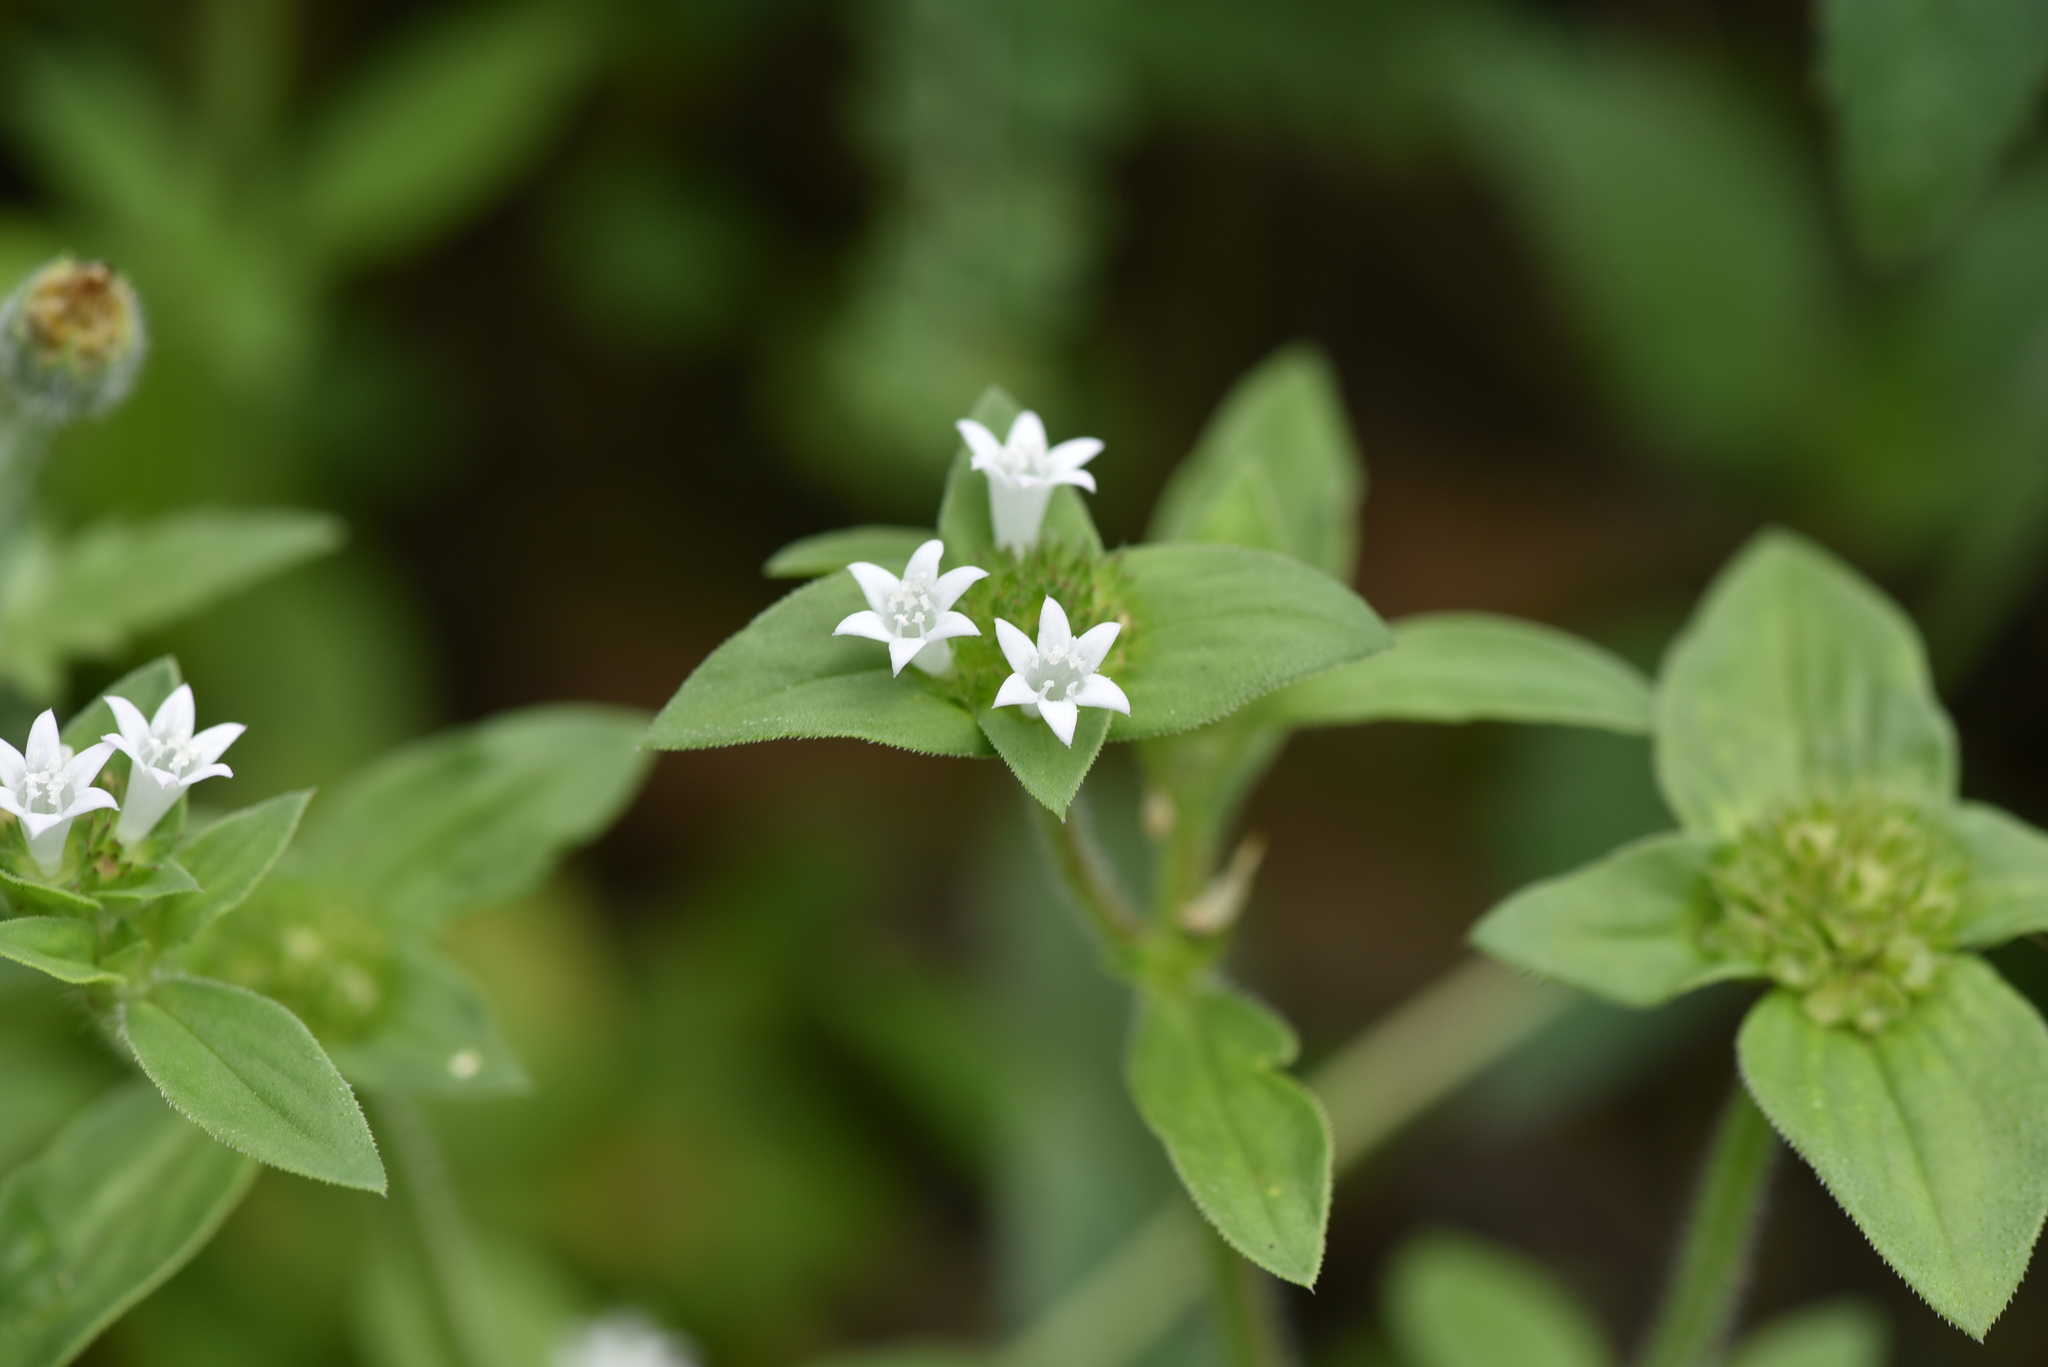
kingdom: Plantae
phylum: Tracheophyta
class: Magnoliopsida
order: Gentianales
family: Rubiaceae
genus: Richardia
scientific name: Richardia scabra
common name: Rough mexican clover
